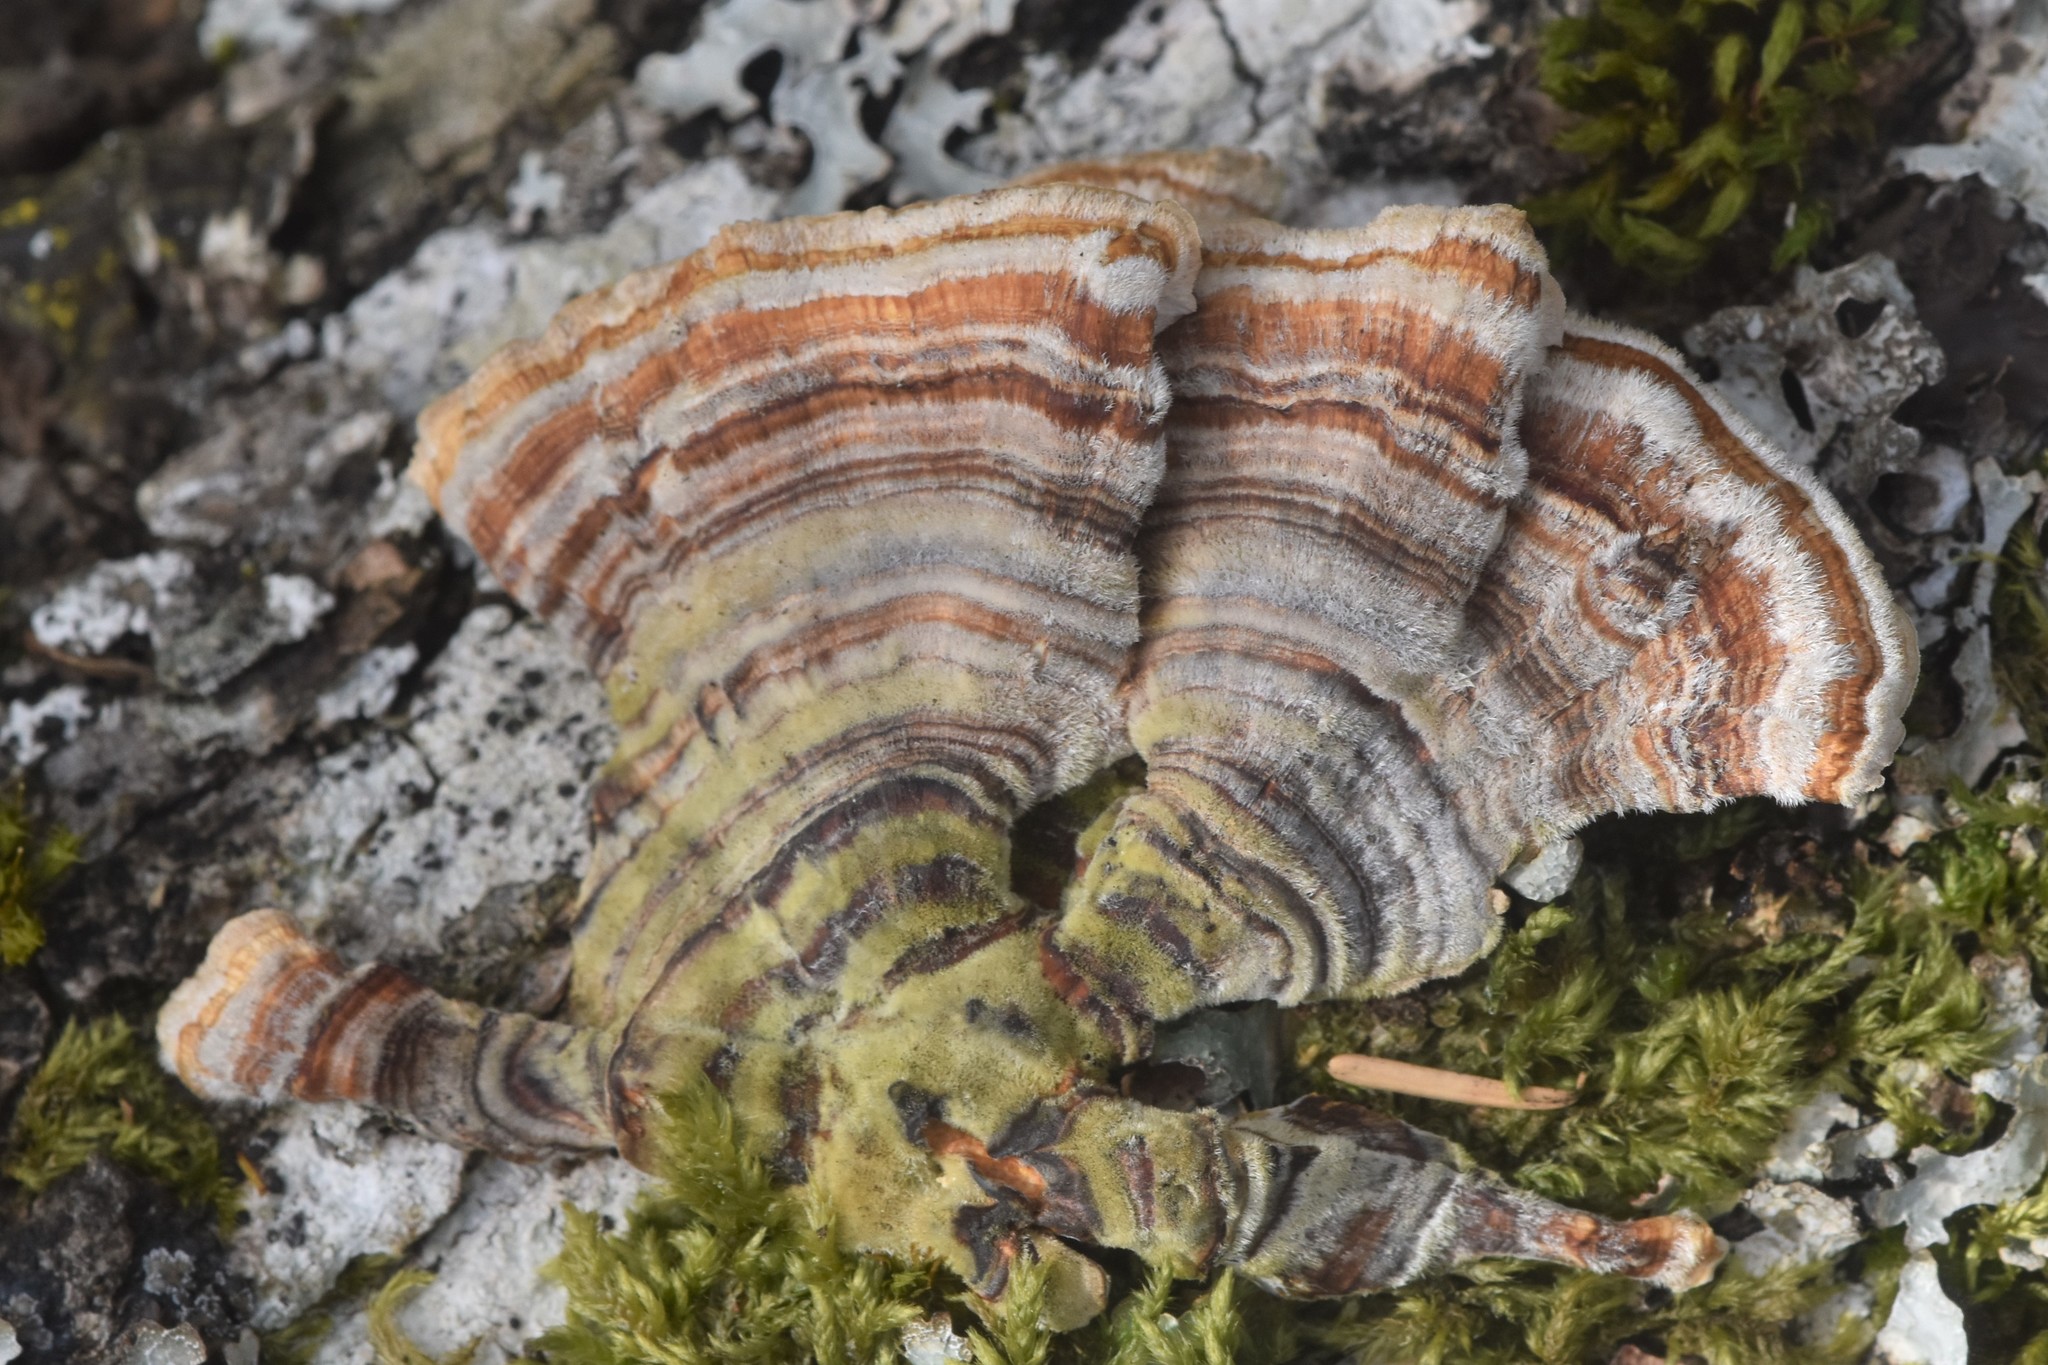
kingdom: Fungi
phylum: Basidiomycota
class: Agaricomycetes
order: Polyporales
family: Polyporaceae
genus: Trametes
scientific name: Trametes ochracea
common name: Ochre bracket
